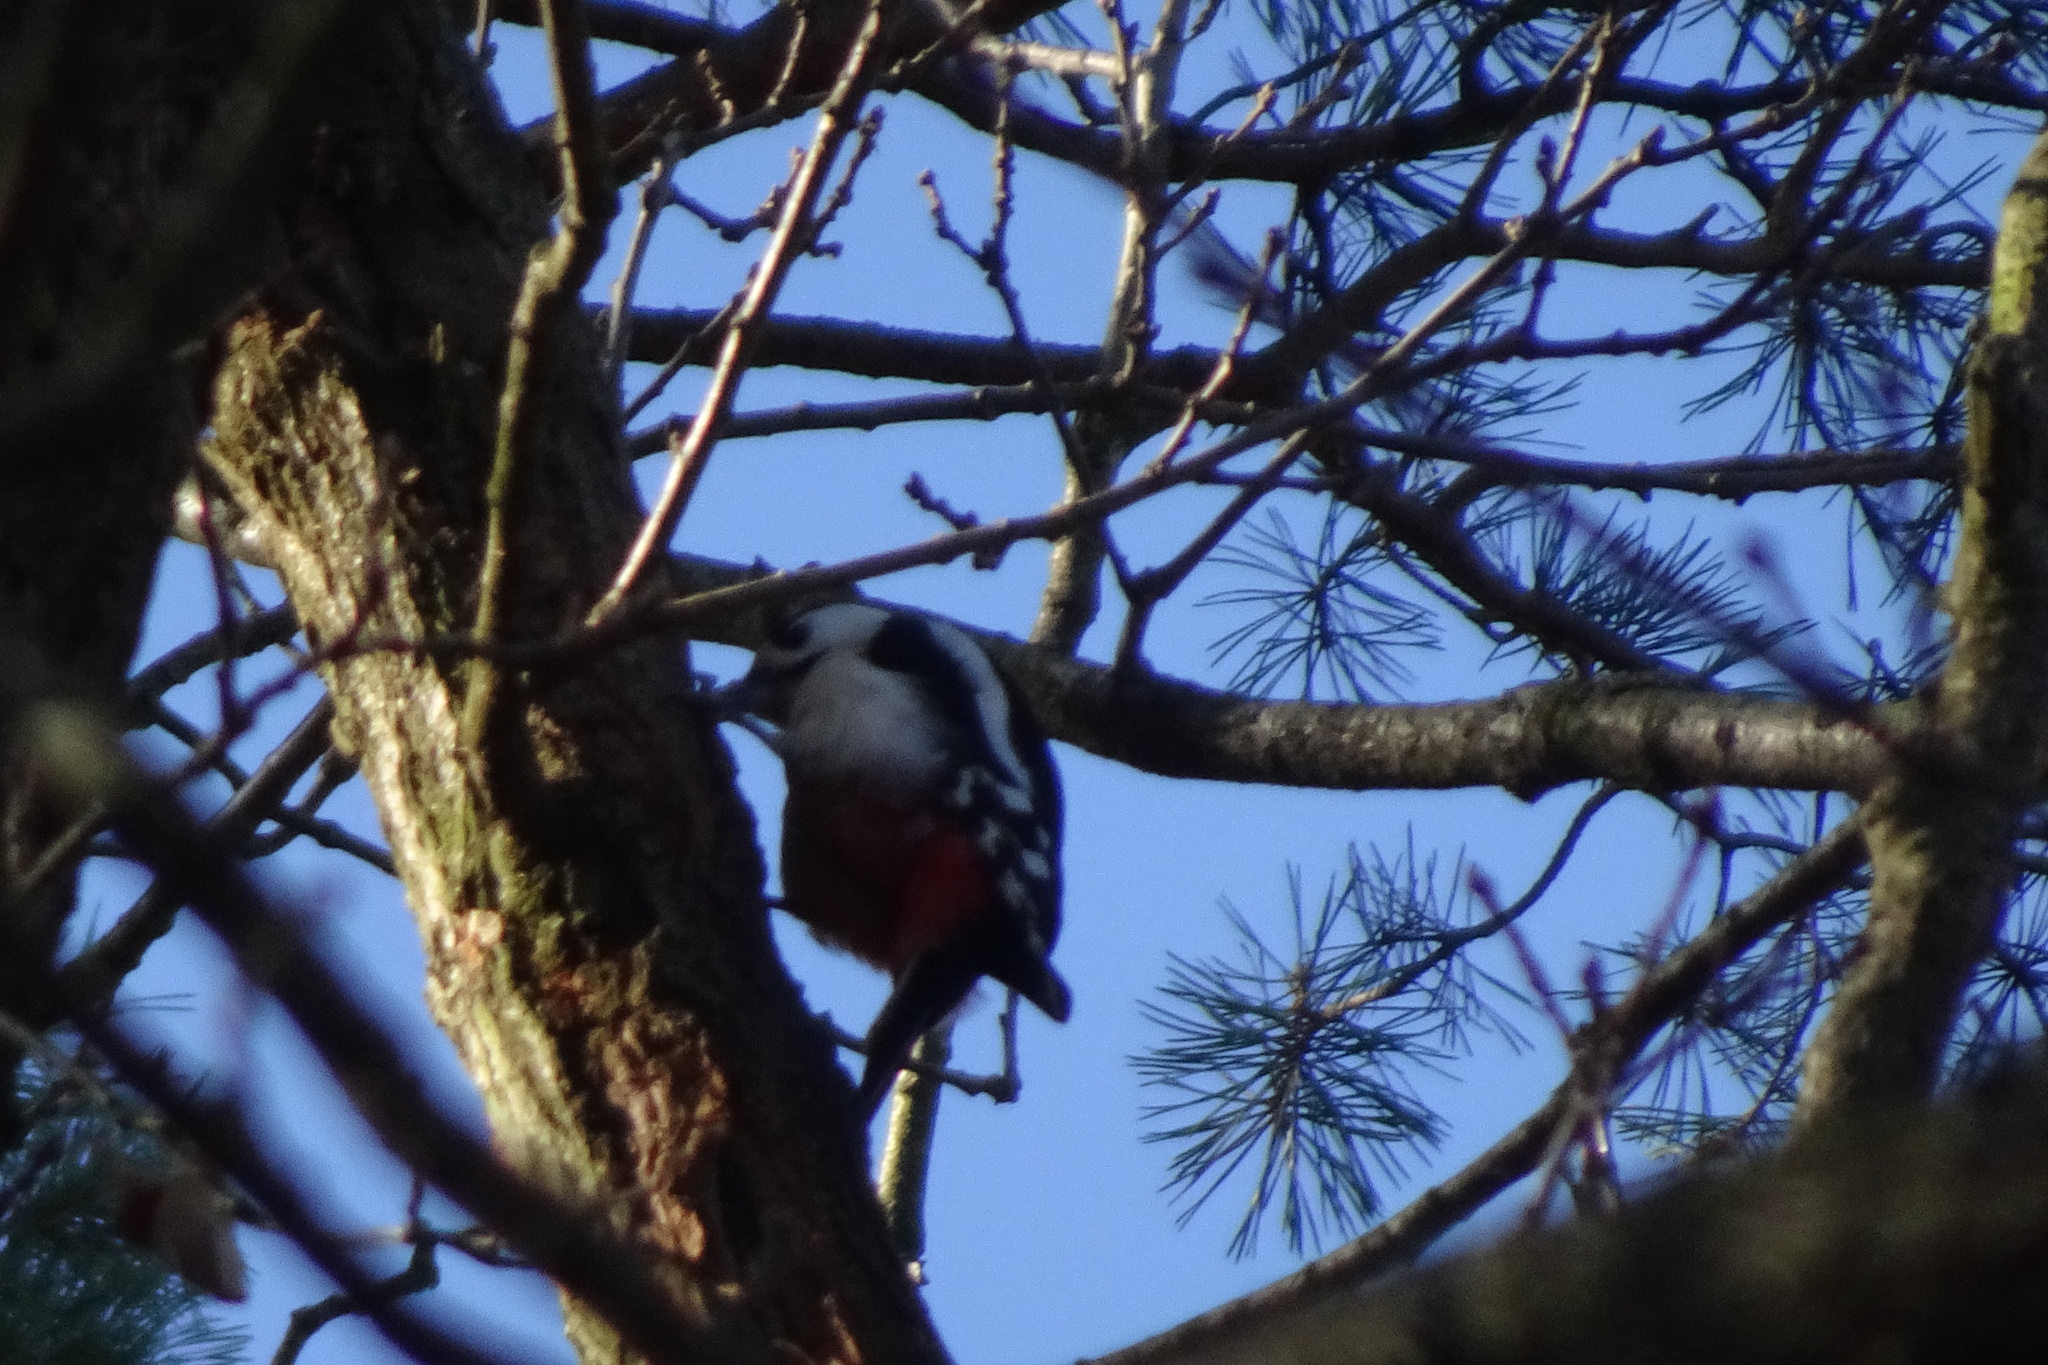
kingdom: Animalia
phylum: Chordata
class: Aves
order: Piciformes
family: Picidae
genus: Dendrocopos
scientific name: Dendrocopos major
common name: Great spotted woodpecker
